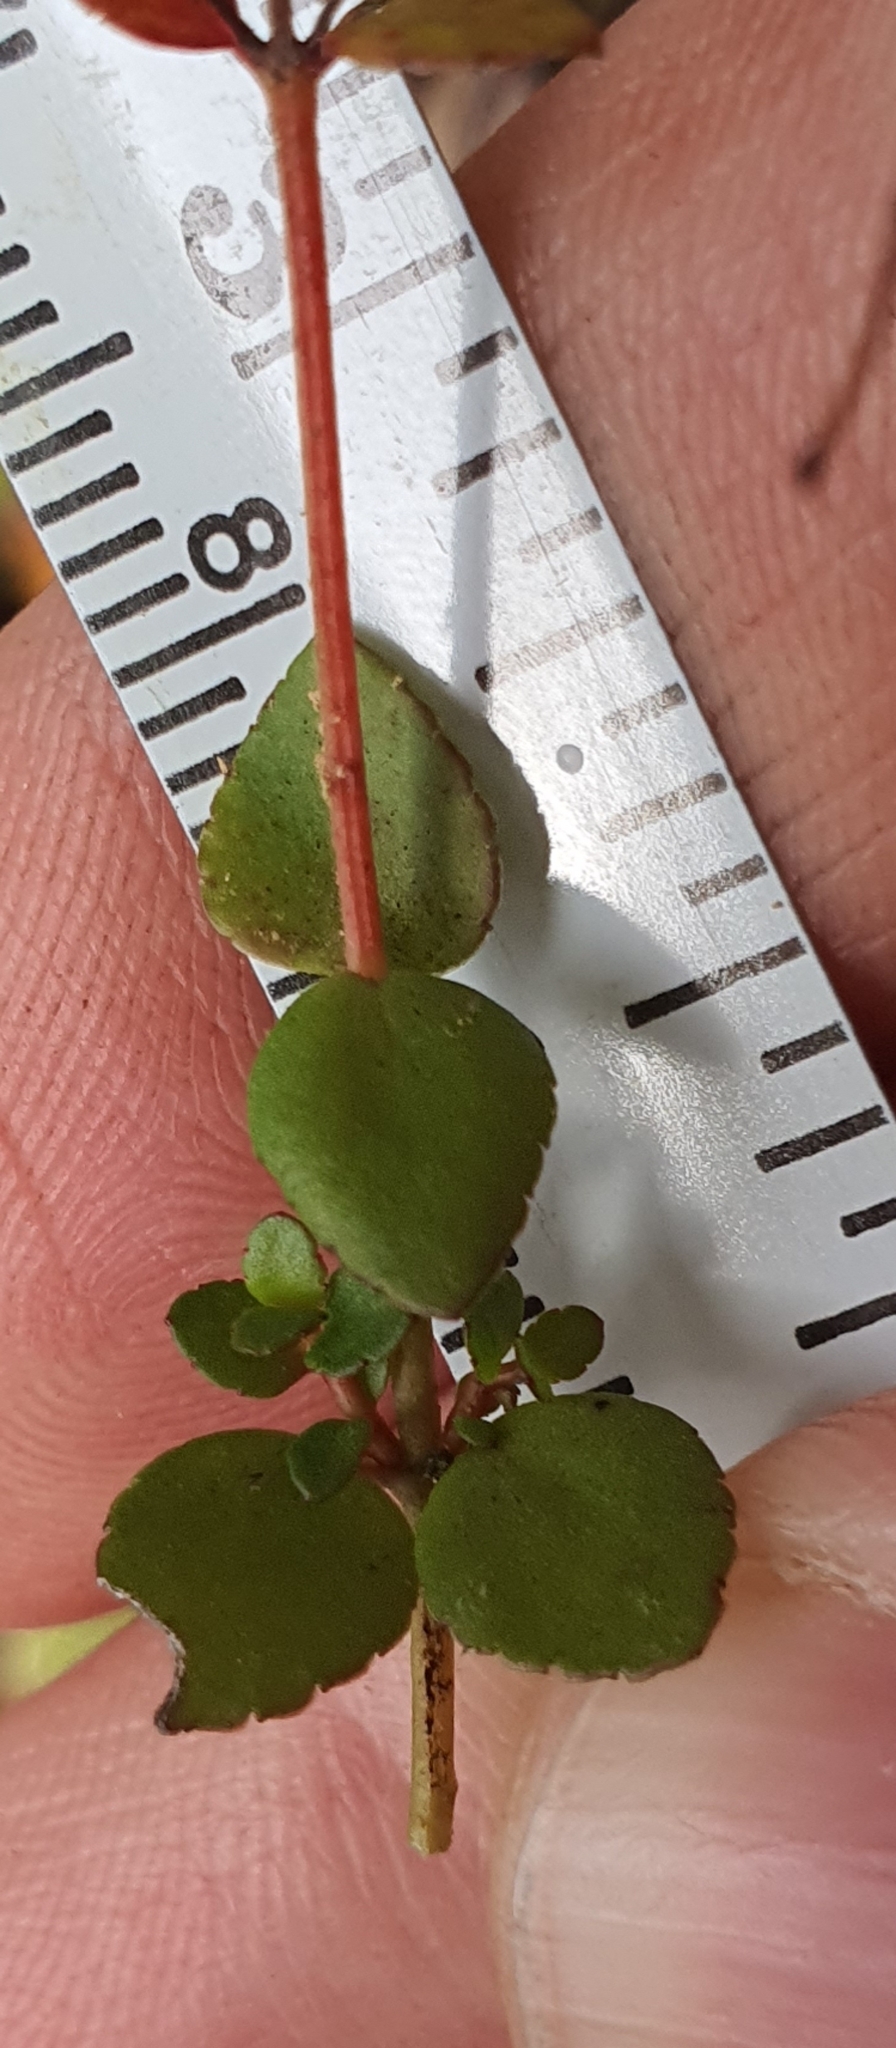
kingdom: Plantae
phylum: Tracheophyta
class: Magnoliopsida
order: Saxifragales
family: Haloragaceae
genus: Gonocarpus
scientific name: Gonocarpus micranthus
